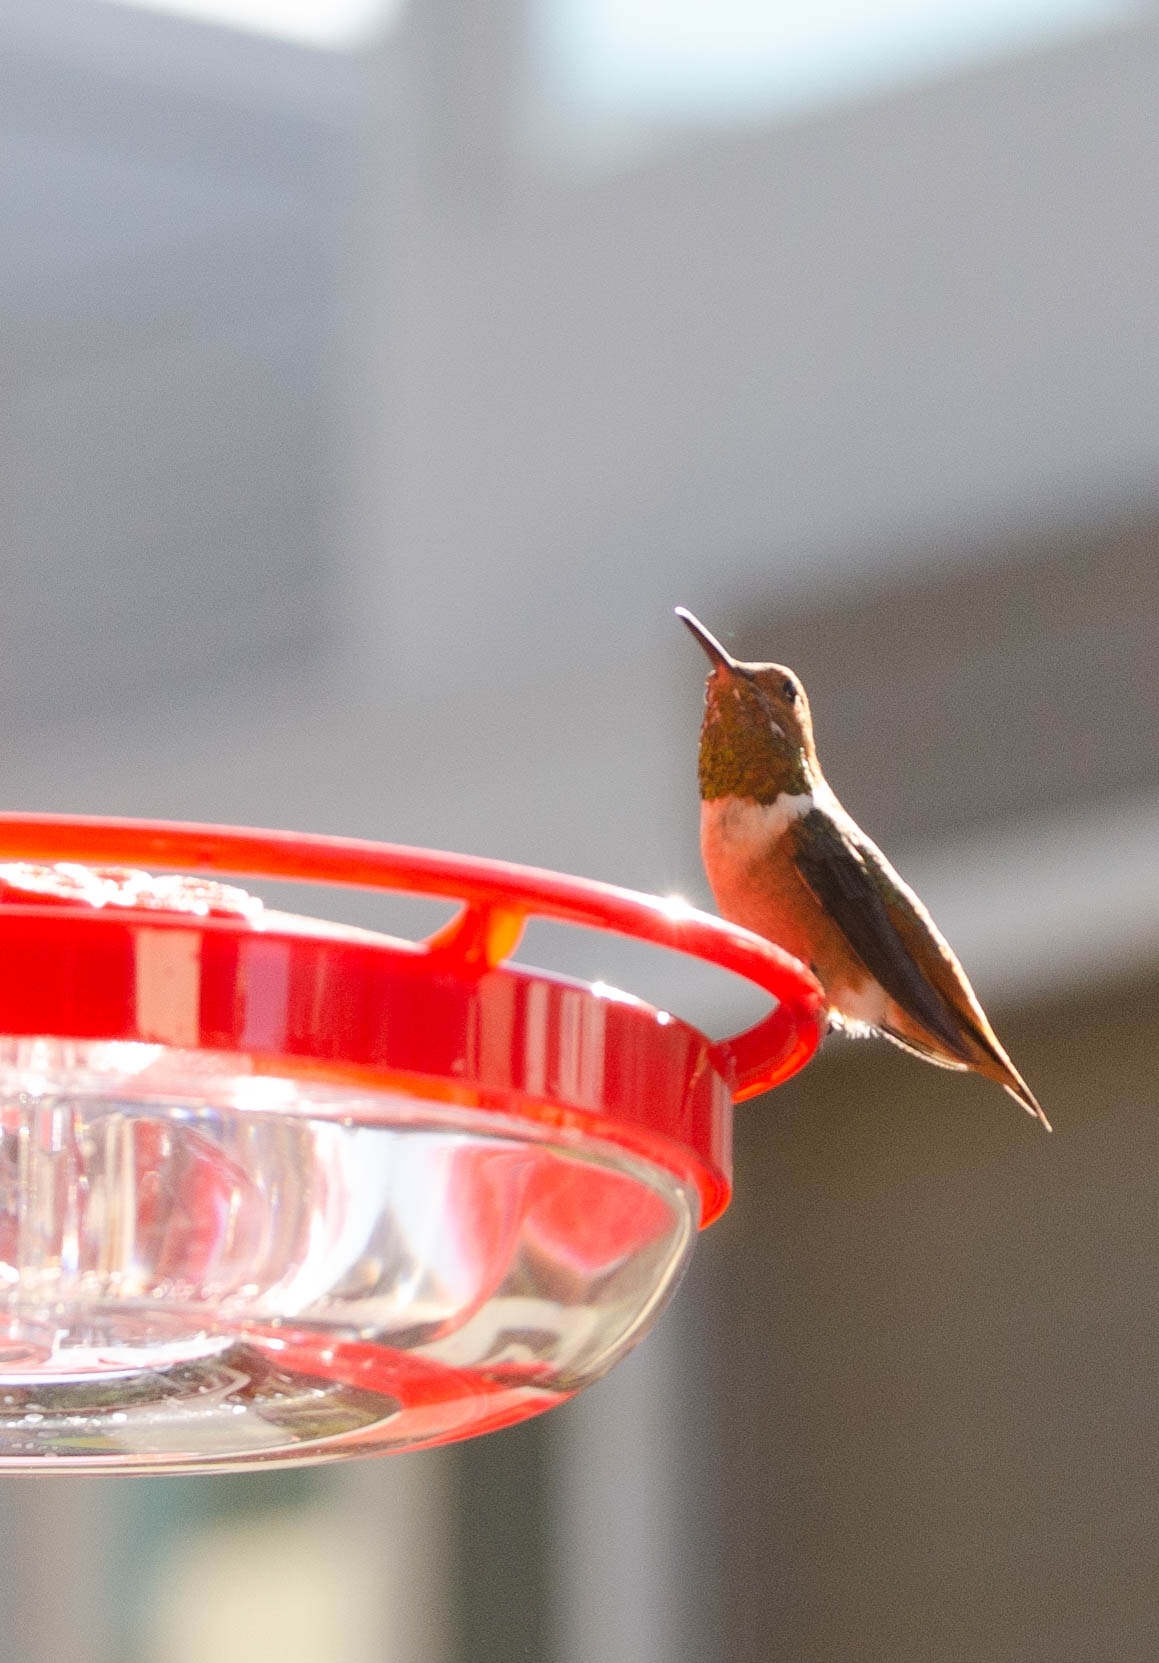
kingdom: Animalia
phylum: Chordata
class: Aves
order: Apodiformes
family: Trochilidae
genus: Selasphorus
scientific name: Selasphorus sasin
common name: Allen's hummingbird
